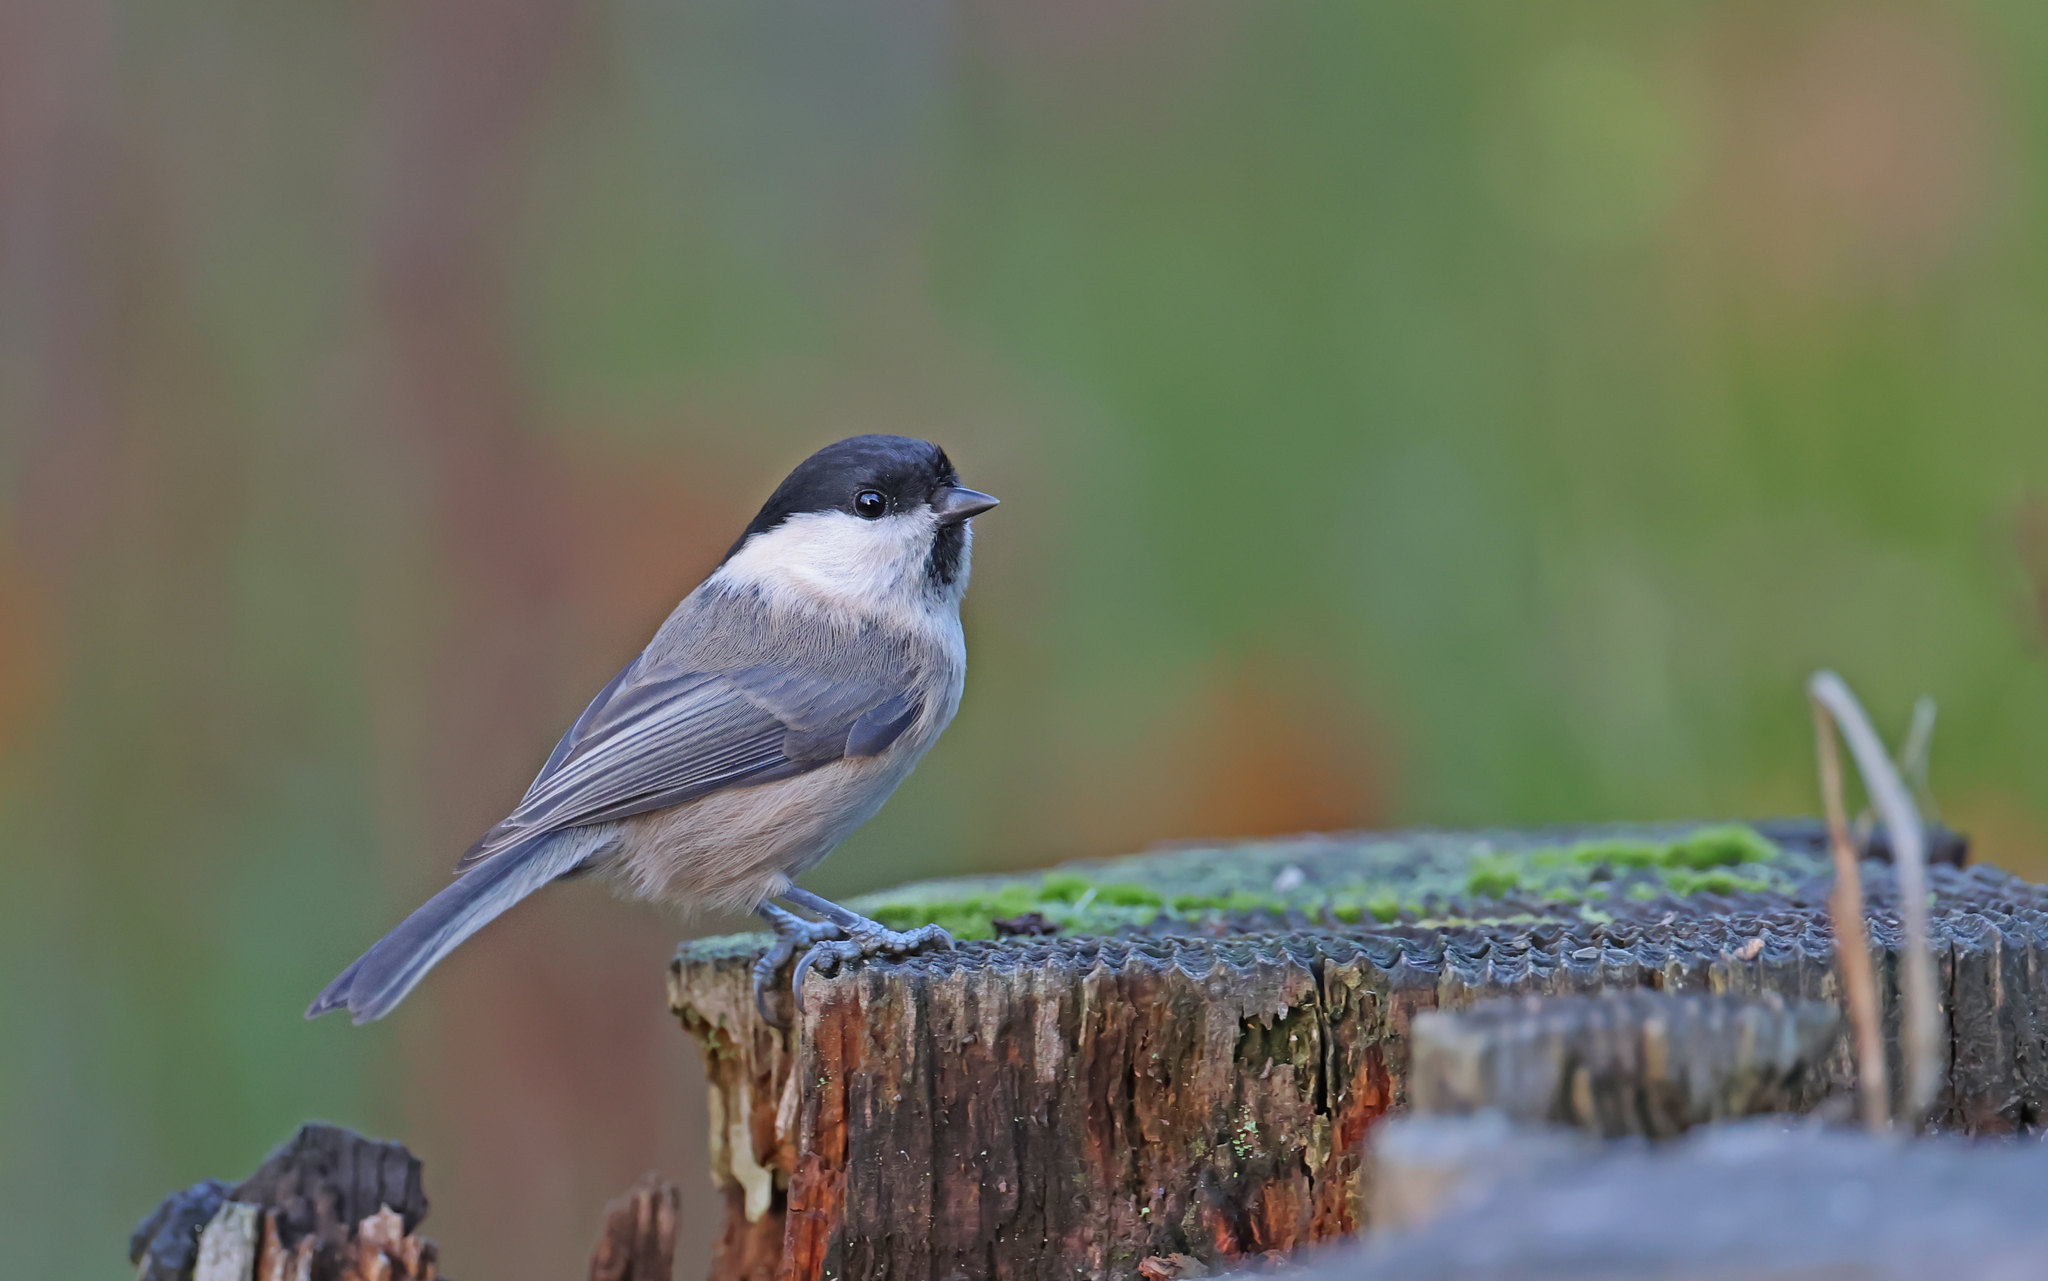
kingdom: Animalia
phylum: Chordata
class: Aves
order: Passeriformes
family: Paridae
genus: Poecile
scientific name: Poecile palustris
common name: Marsh tit
